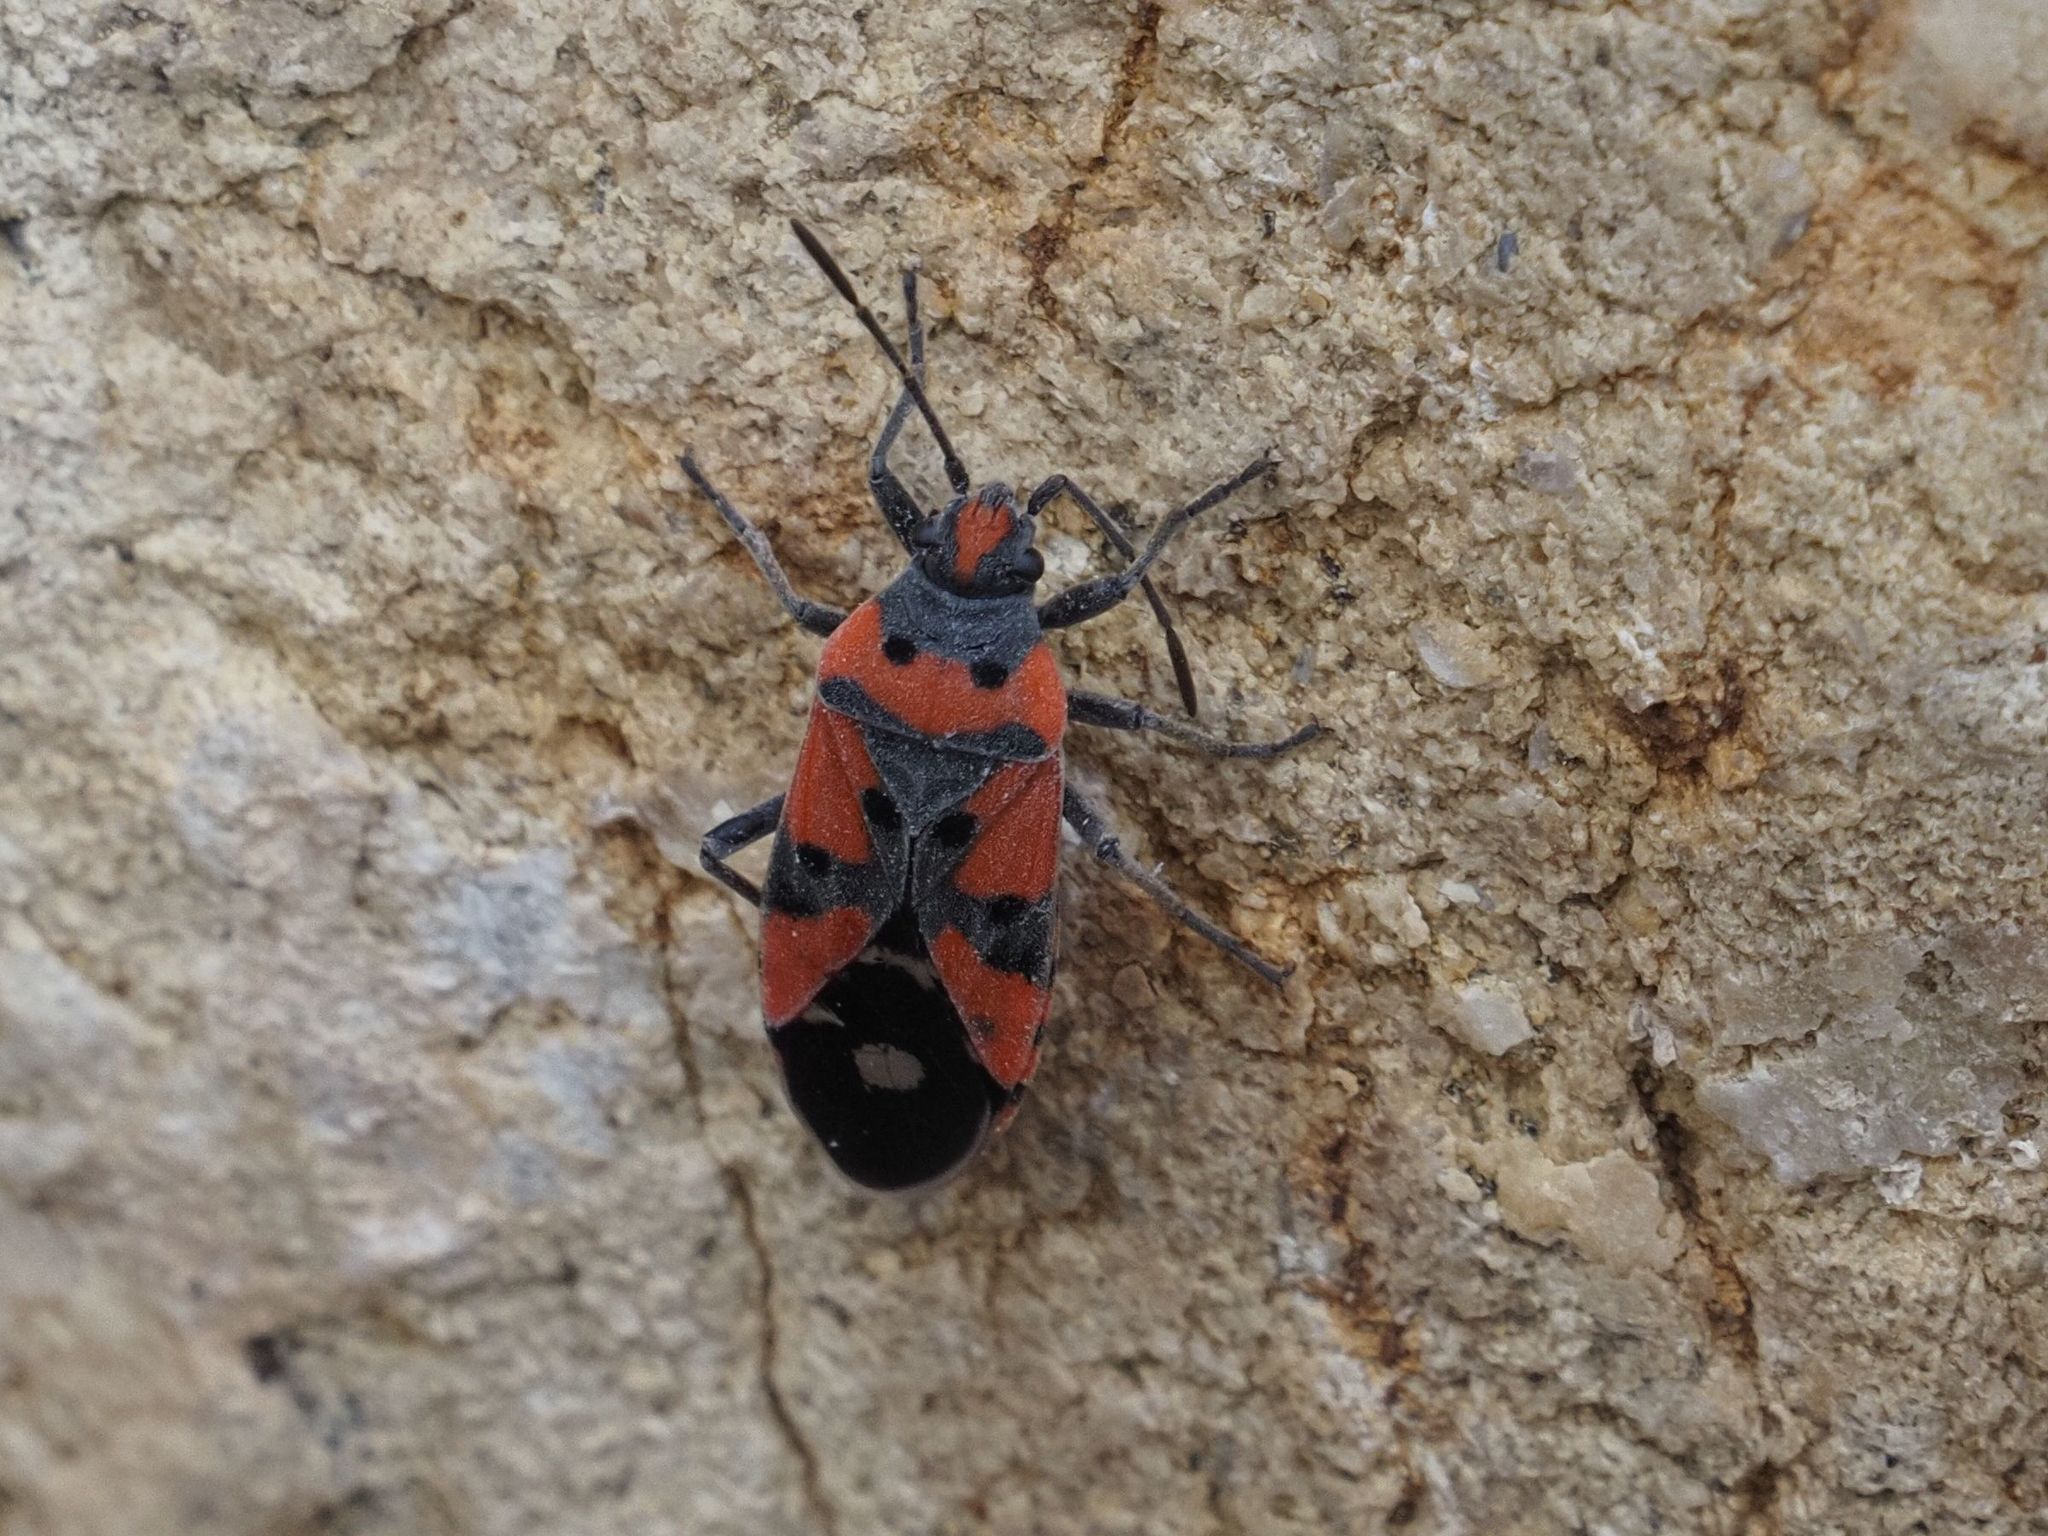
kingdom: Animalia
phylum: Arthropoda
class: Insecta
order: Hemiptera
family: Lygaeidae
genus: Lygaeus
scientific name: Lygaeus equestris
